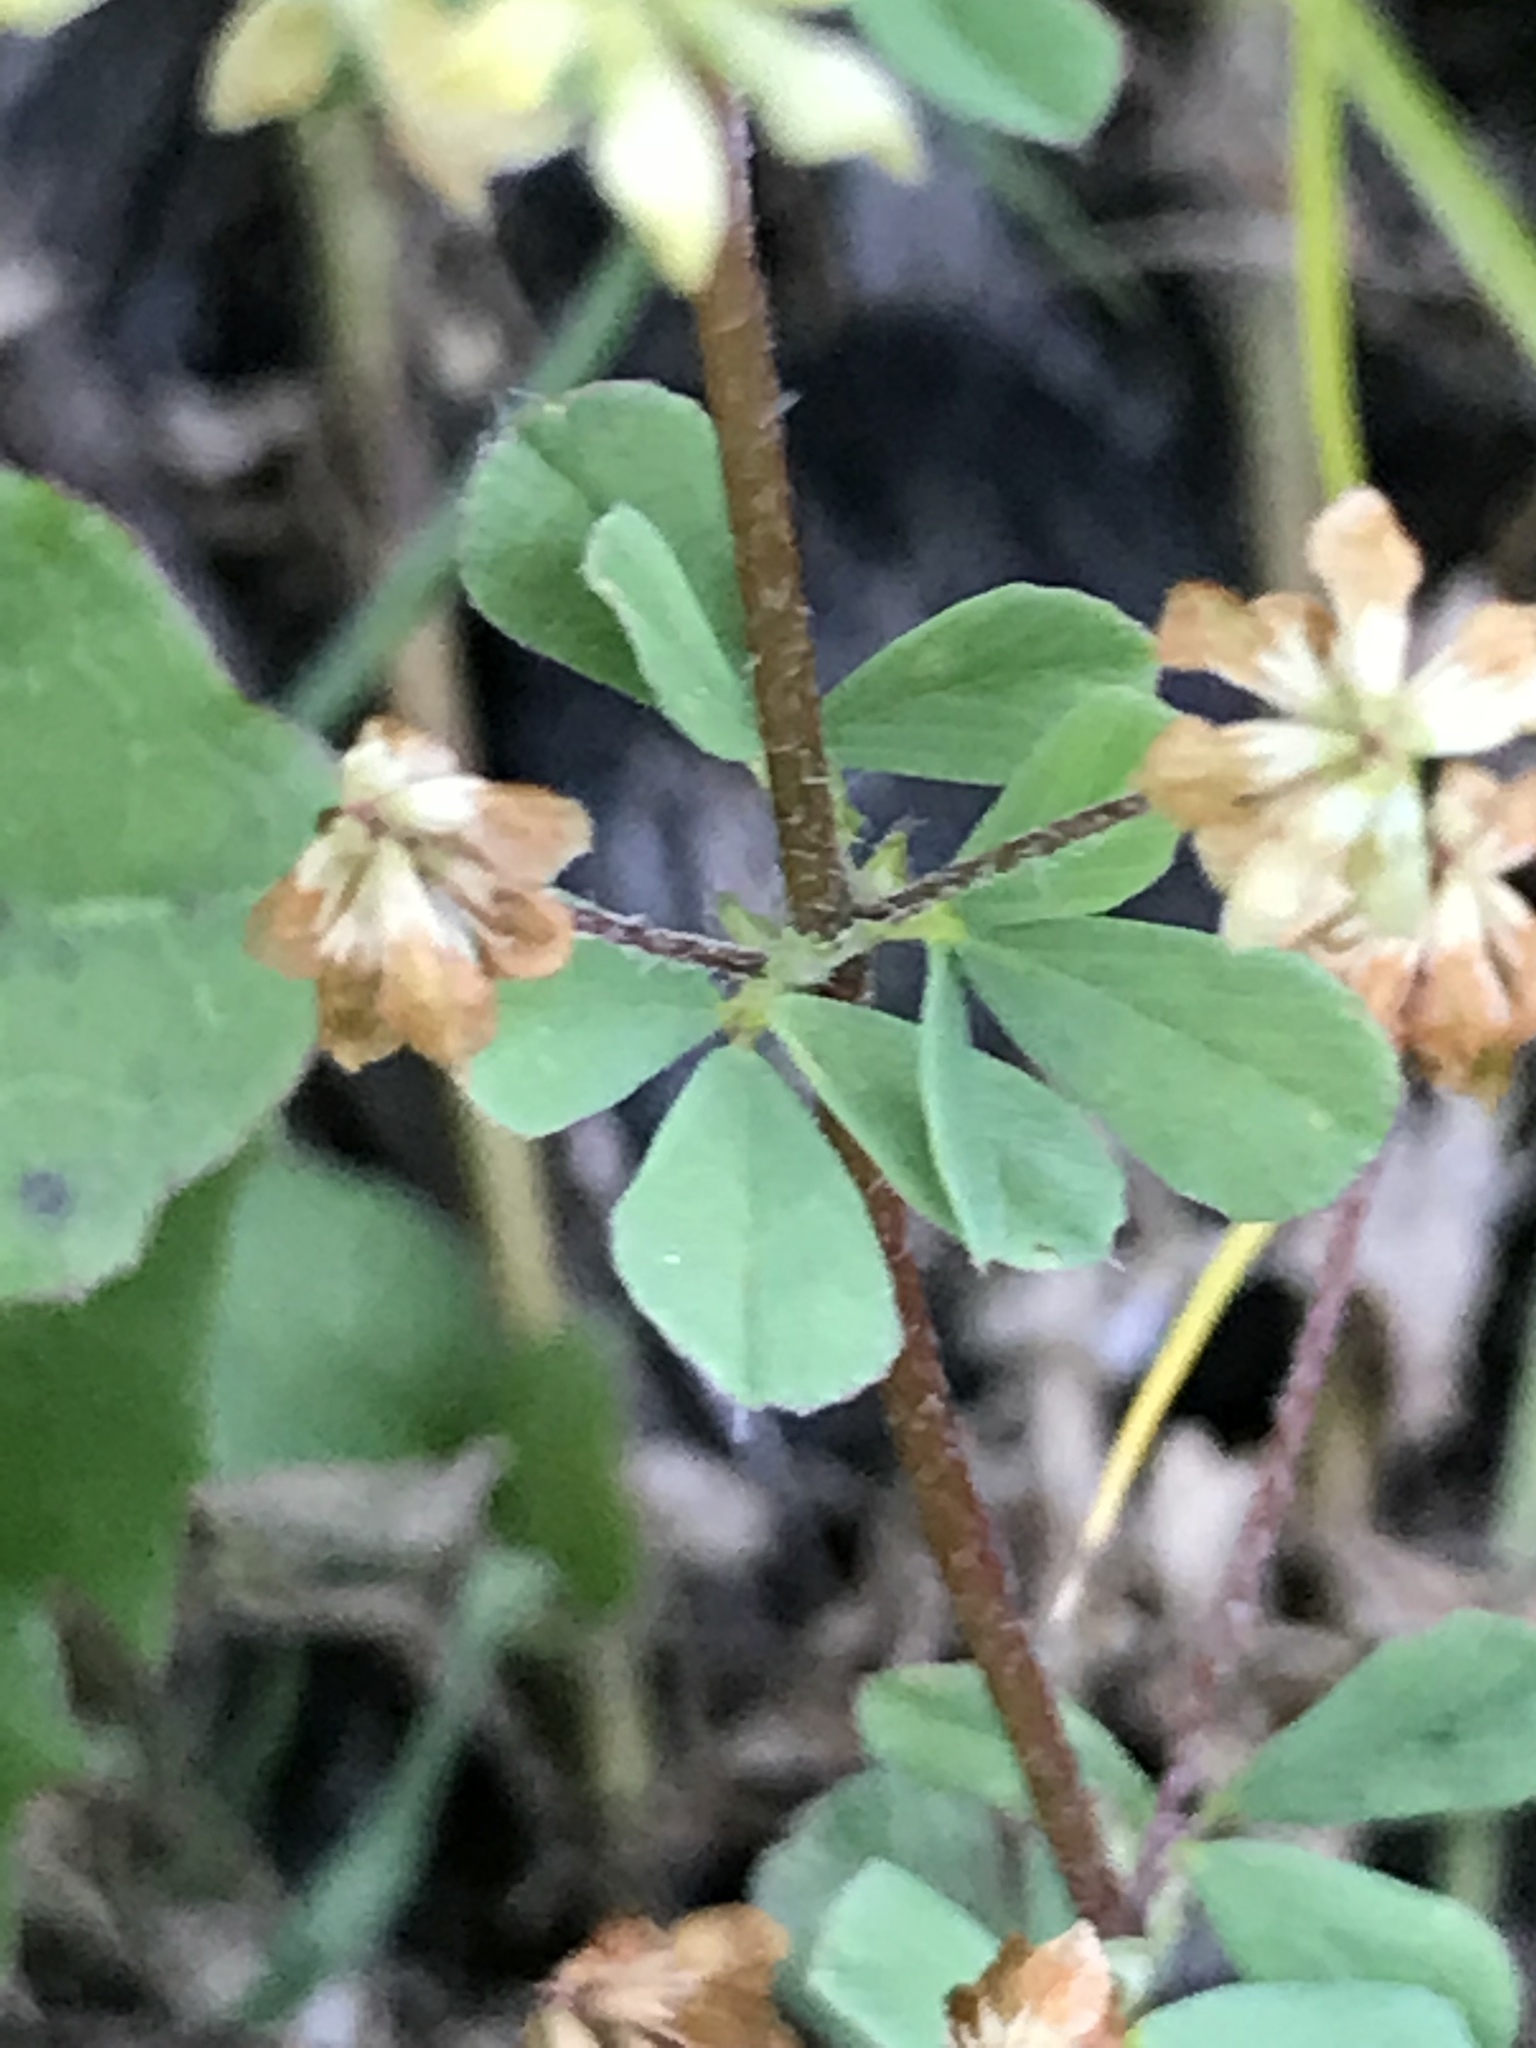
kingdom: Plantae
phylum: Tracheophyta
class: Magnoliopsida
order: Fabales
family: Fabaceae
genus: Trifolium
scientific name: Trifolium dubium
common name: Suckling clover
